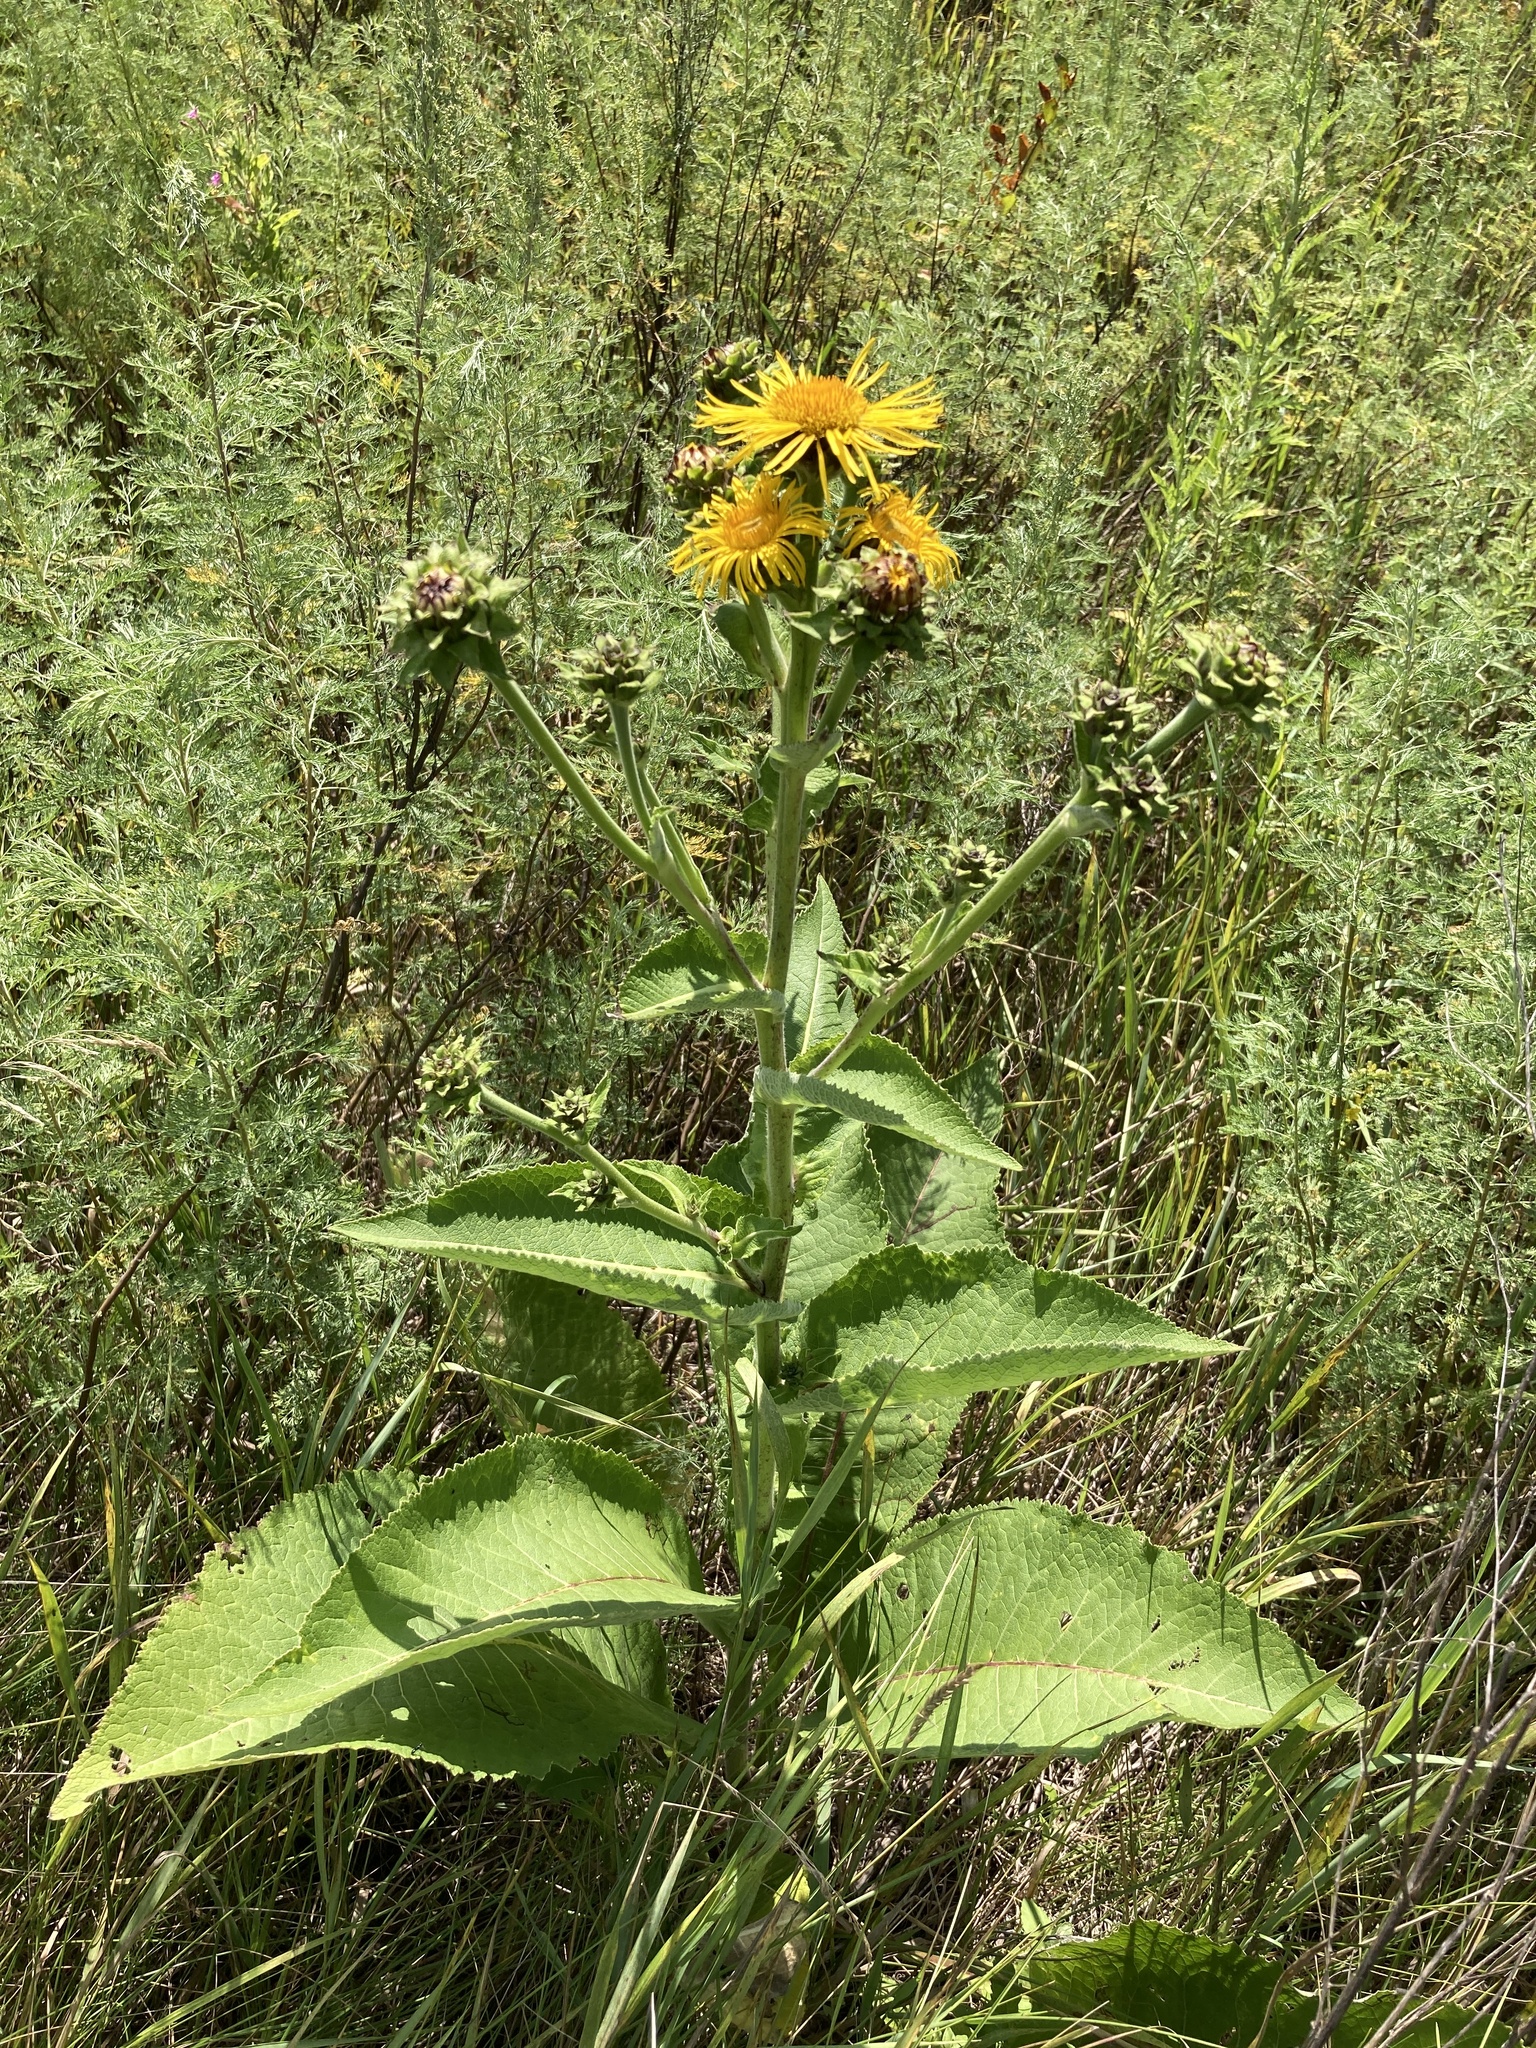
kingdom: Plantae
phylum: Tracheophyta
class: Magnoliopsida
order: Asterales
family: Asteraceae
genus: Inula
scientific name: Inula helenium
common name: Elecampane
